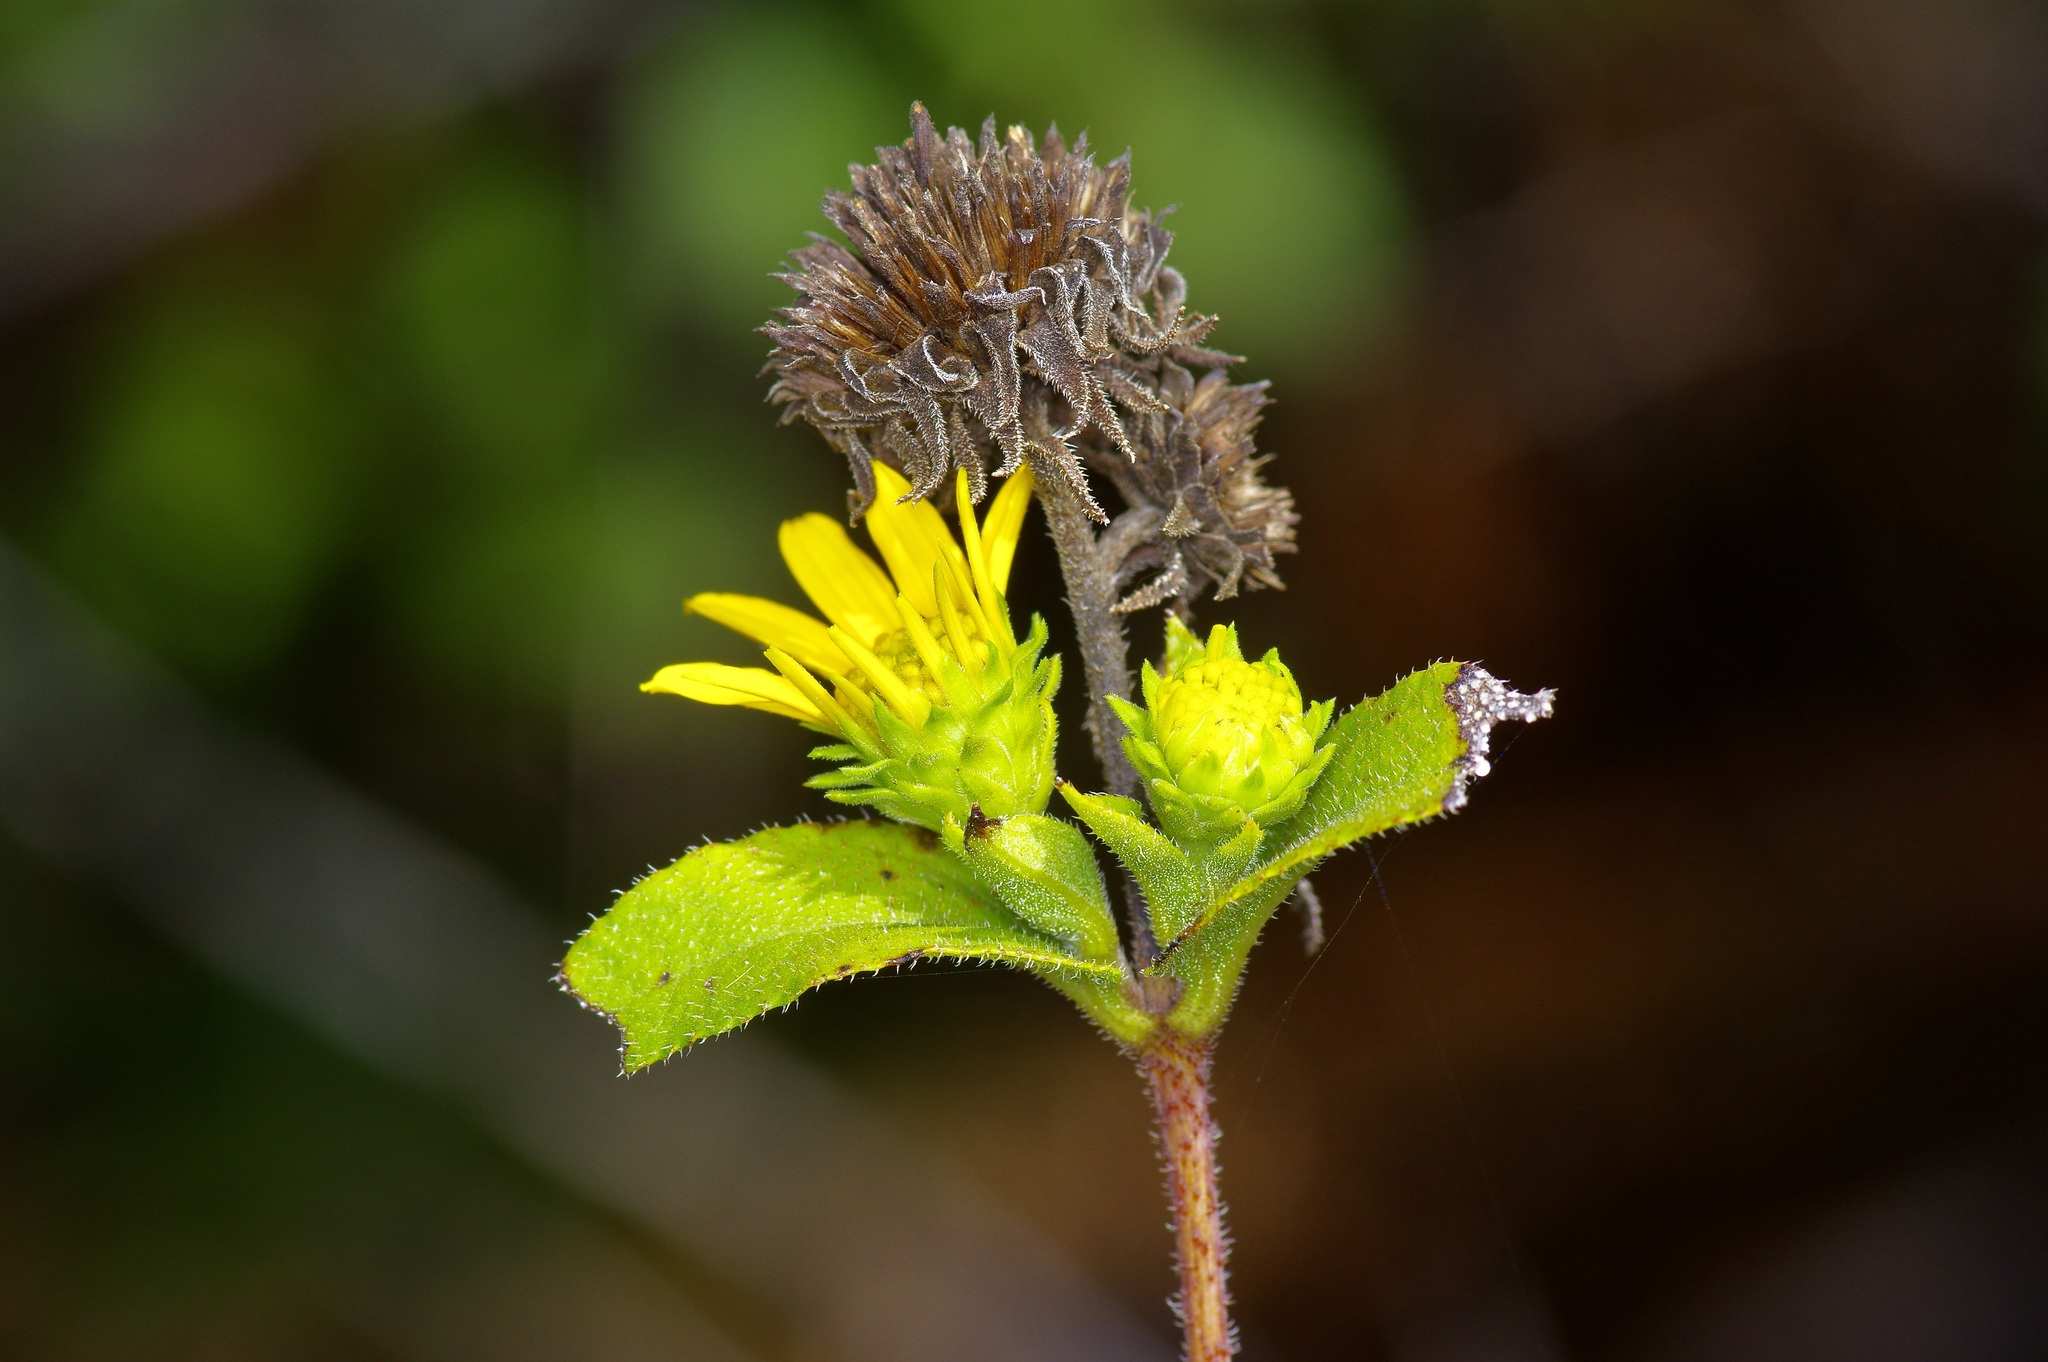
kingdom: Plantae
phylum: Tracheophyta
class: Magnoliopsida
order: Asterales
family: Asteraceae
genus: Helianthus
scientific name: Helianthus hirsutus
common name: Hairy sunflower
